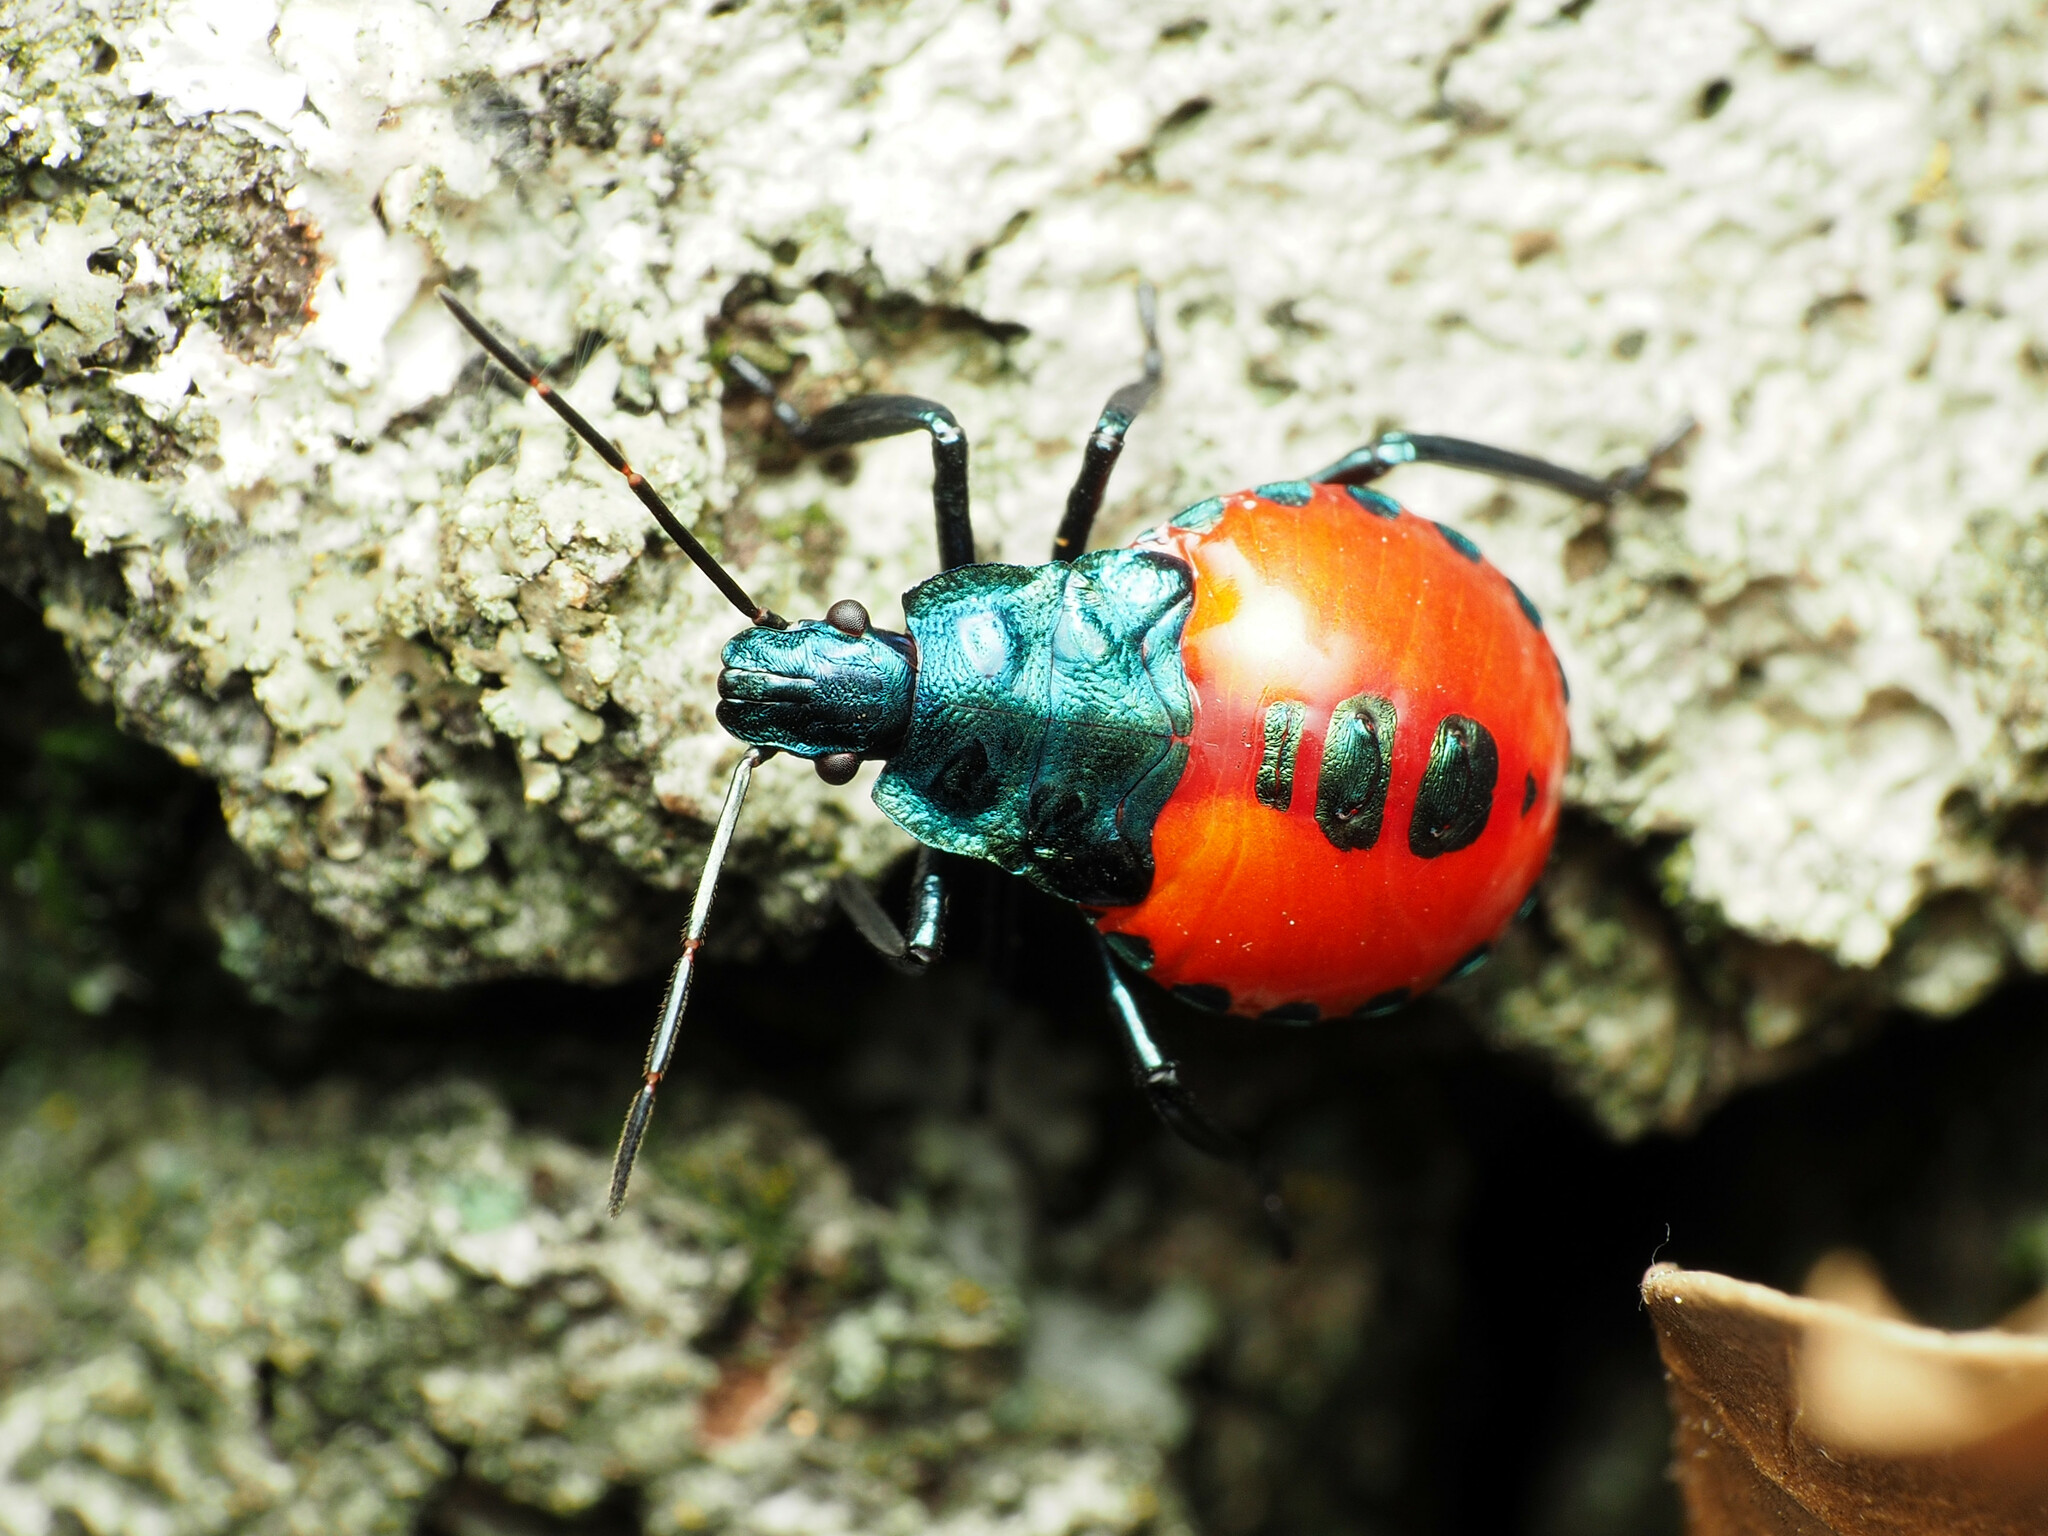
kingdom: Animalia
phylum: Arthropoda
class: Insecta
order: Hemiptera
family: Pentatomidae
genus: Euthyrhynchus
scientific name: Euthyrhynchus floridanus
